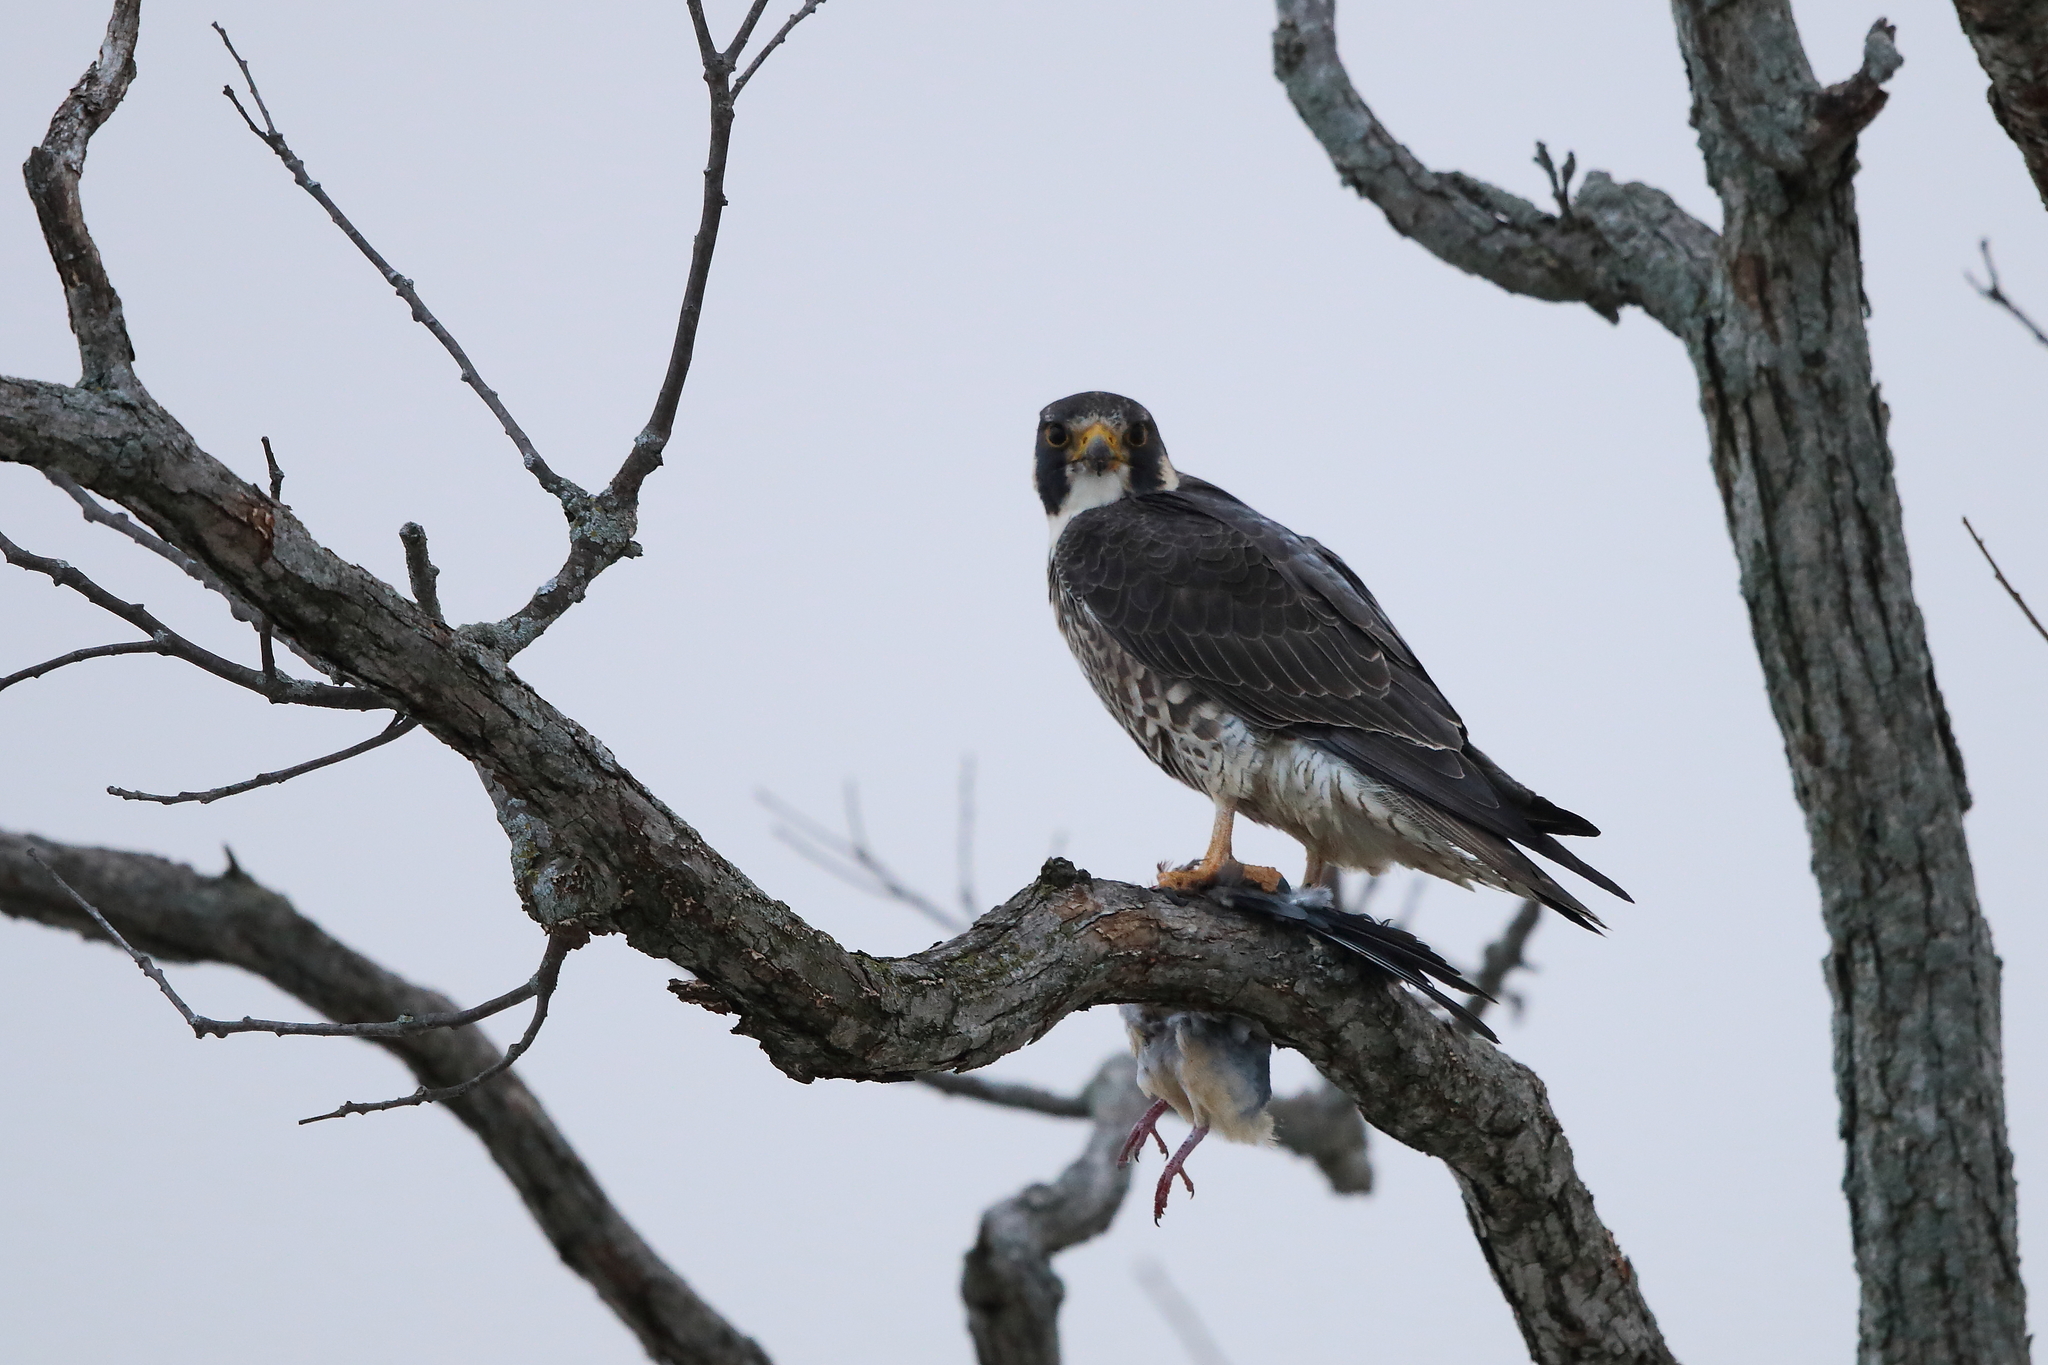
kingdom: Animalia
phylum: Chordata
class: Aves
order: Falconiformes
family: Falconidae
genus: Falco
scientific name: Falco peregrinus
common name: Peregrine falcon
